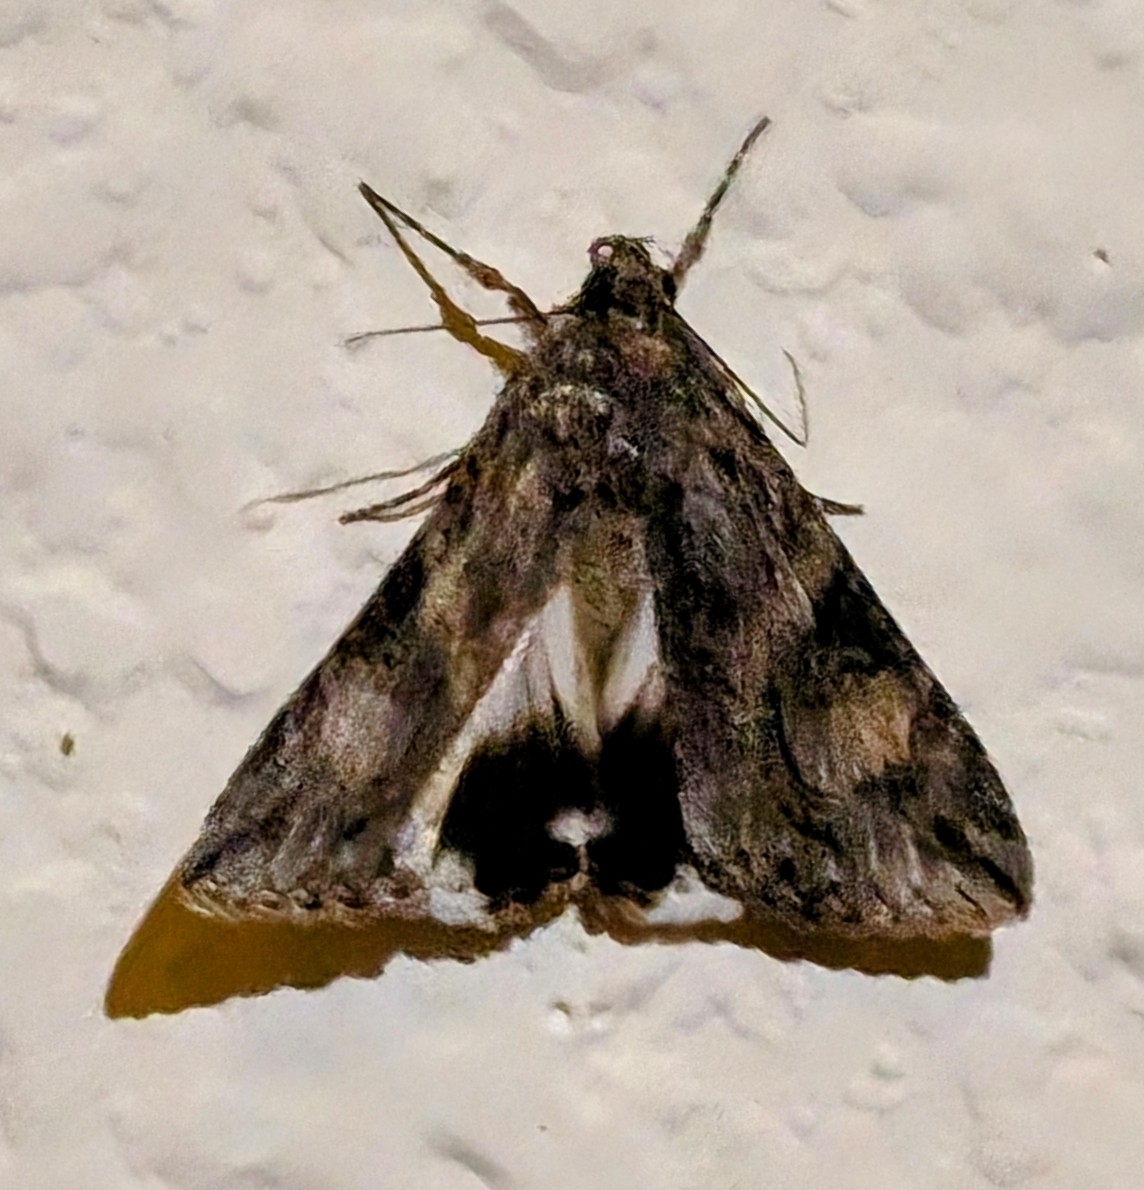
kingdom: Animalia
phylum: Arthropoda
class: Insecta
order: Lepidoptera
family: Erebidae
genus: Melipotis
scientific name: Melipotis jucunda
